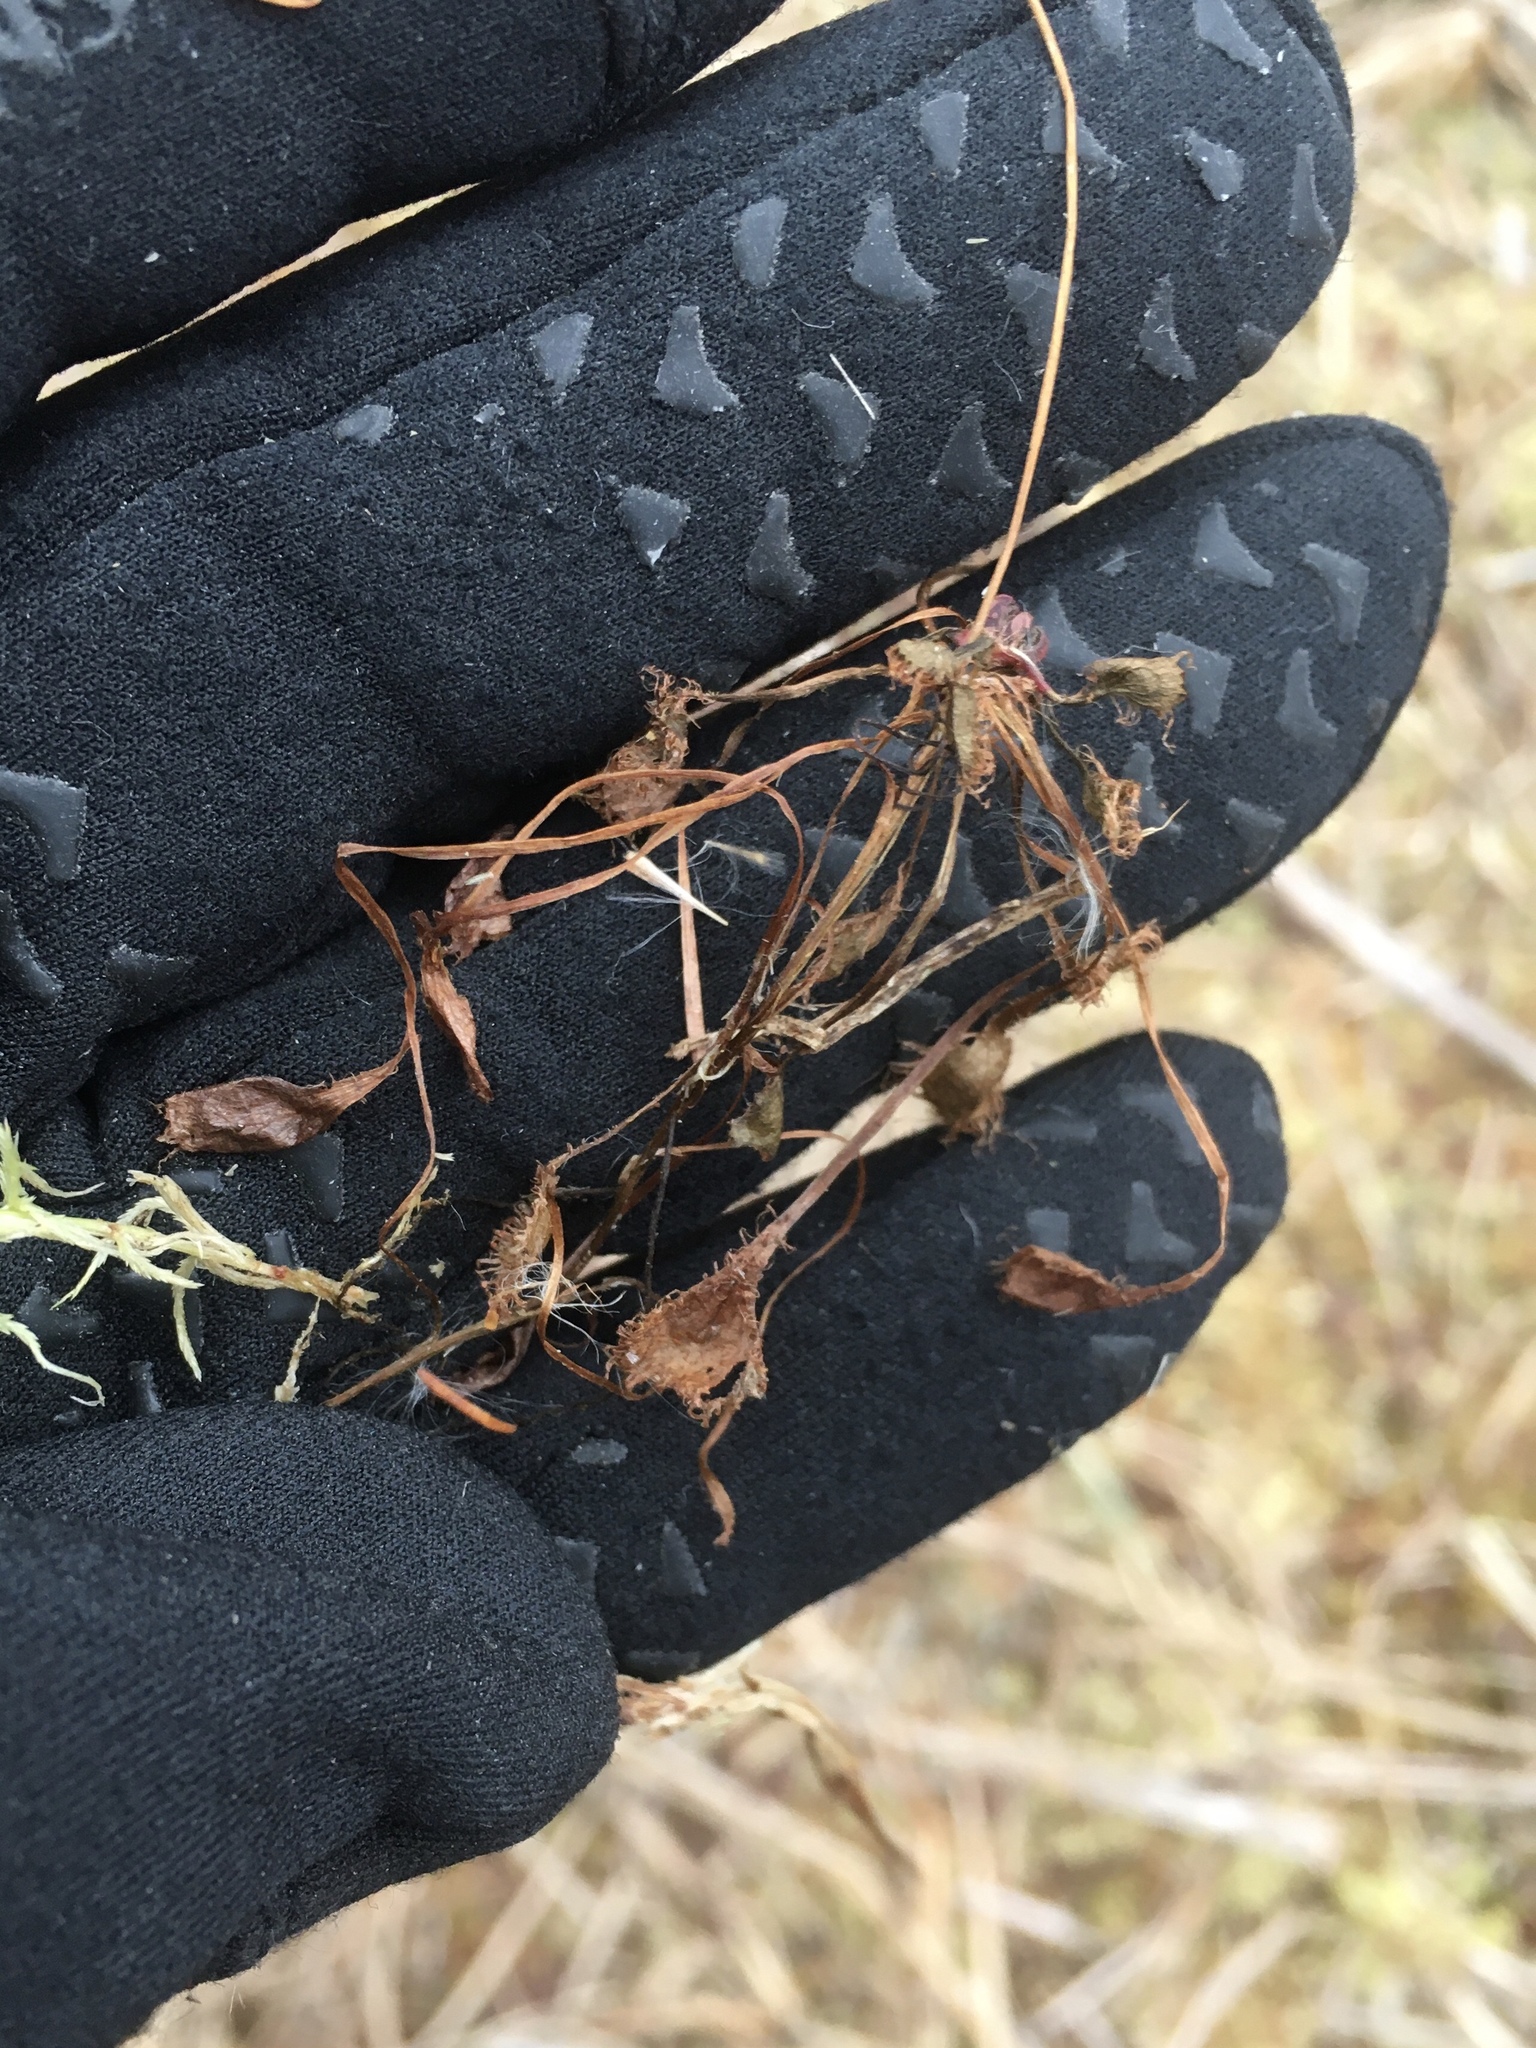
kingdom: Plantae
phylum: Tracheophyta
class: Magnoliopsida
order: Caryophyllales
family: Droseraceae
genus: Drosera
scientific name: Drosera rotundifolia
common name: Round-leaved sundew
